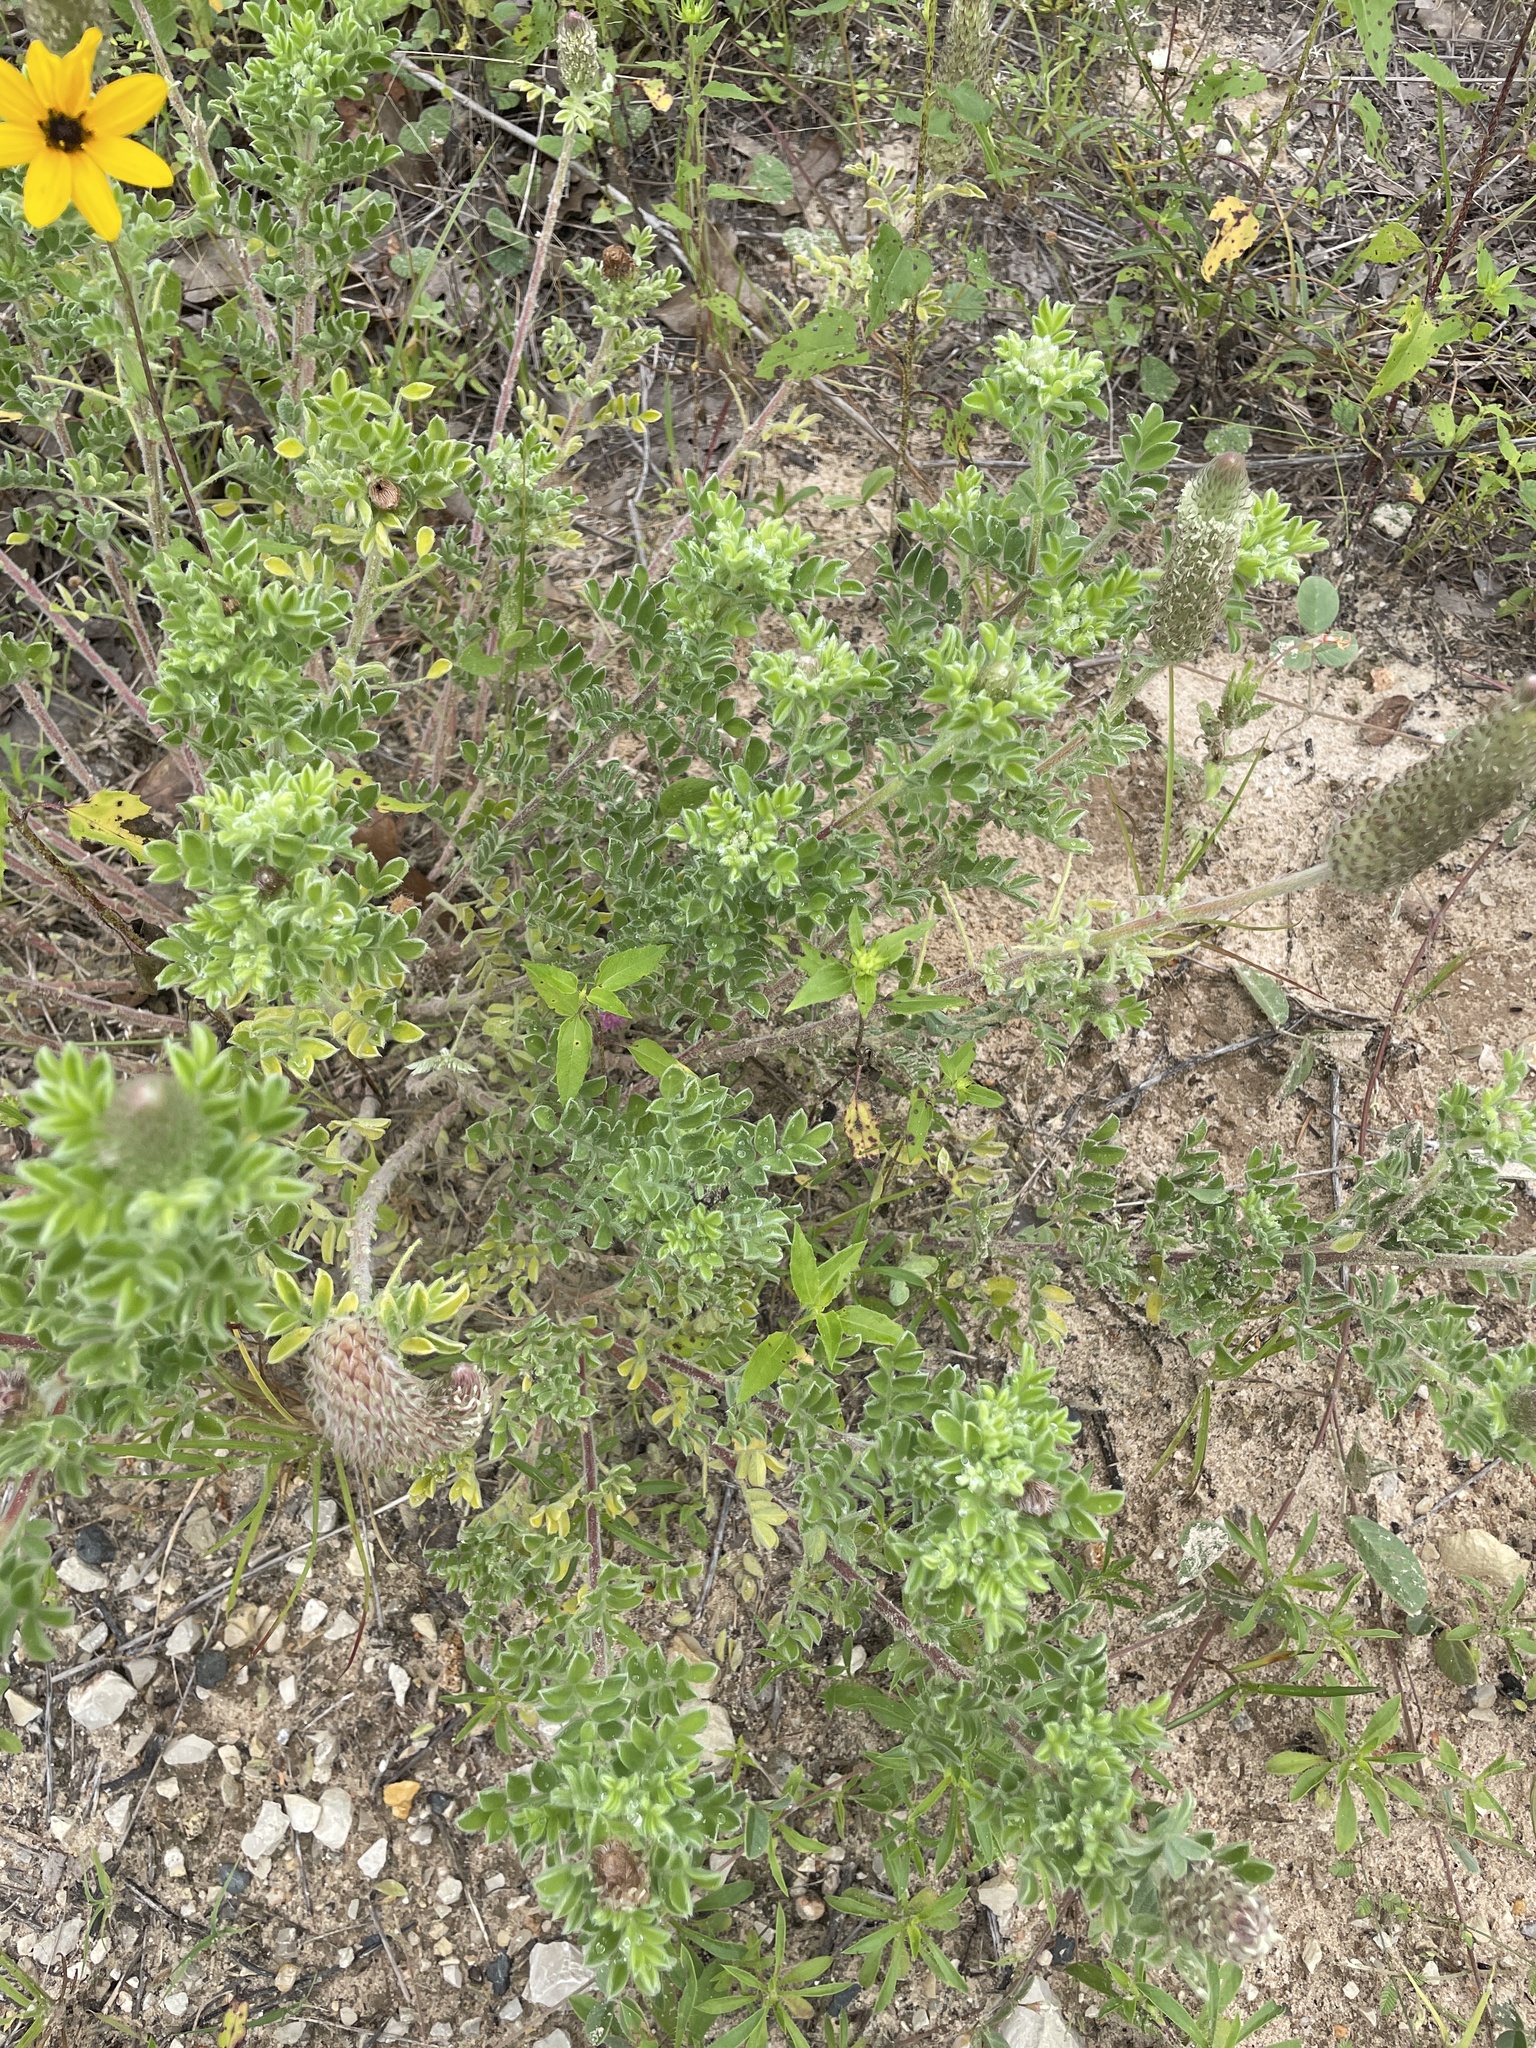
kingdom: Plantae
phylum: Tracheophyta
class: Magnoliopsida
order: Fabales
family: Fabaceae
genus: Dalea
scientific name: Dalea obovata
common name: Pussyfoot
